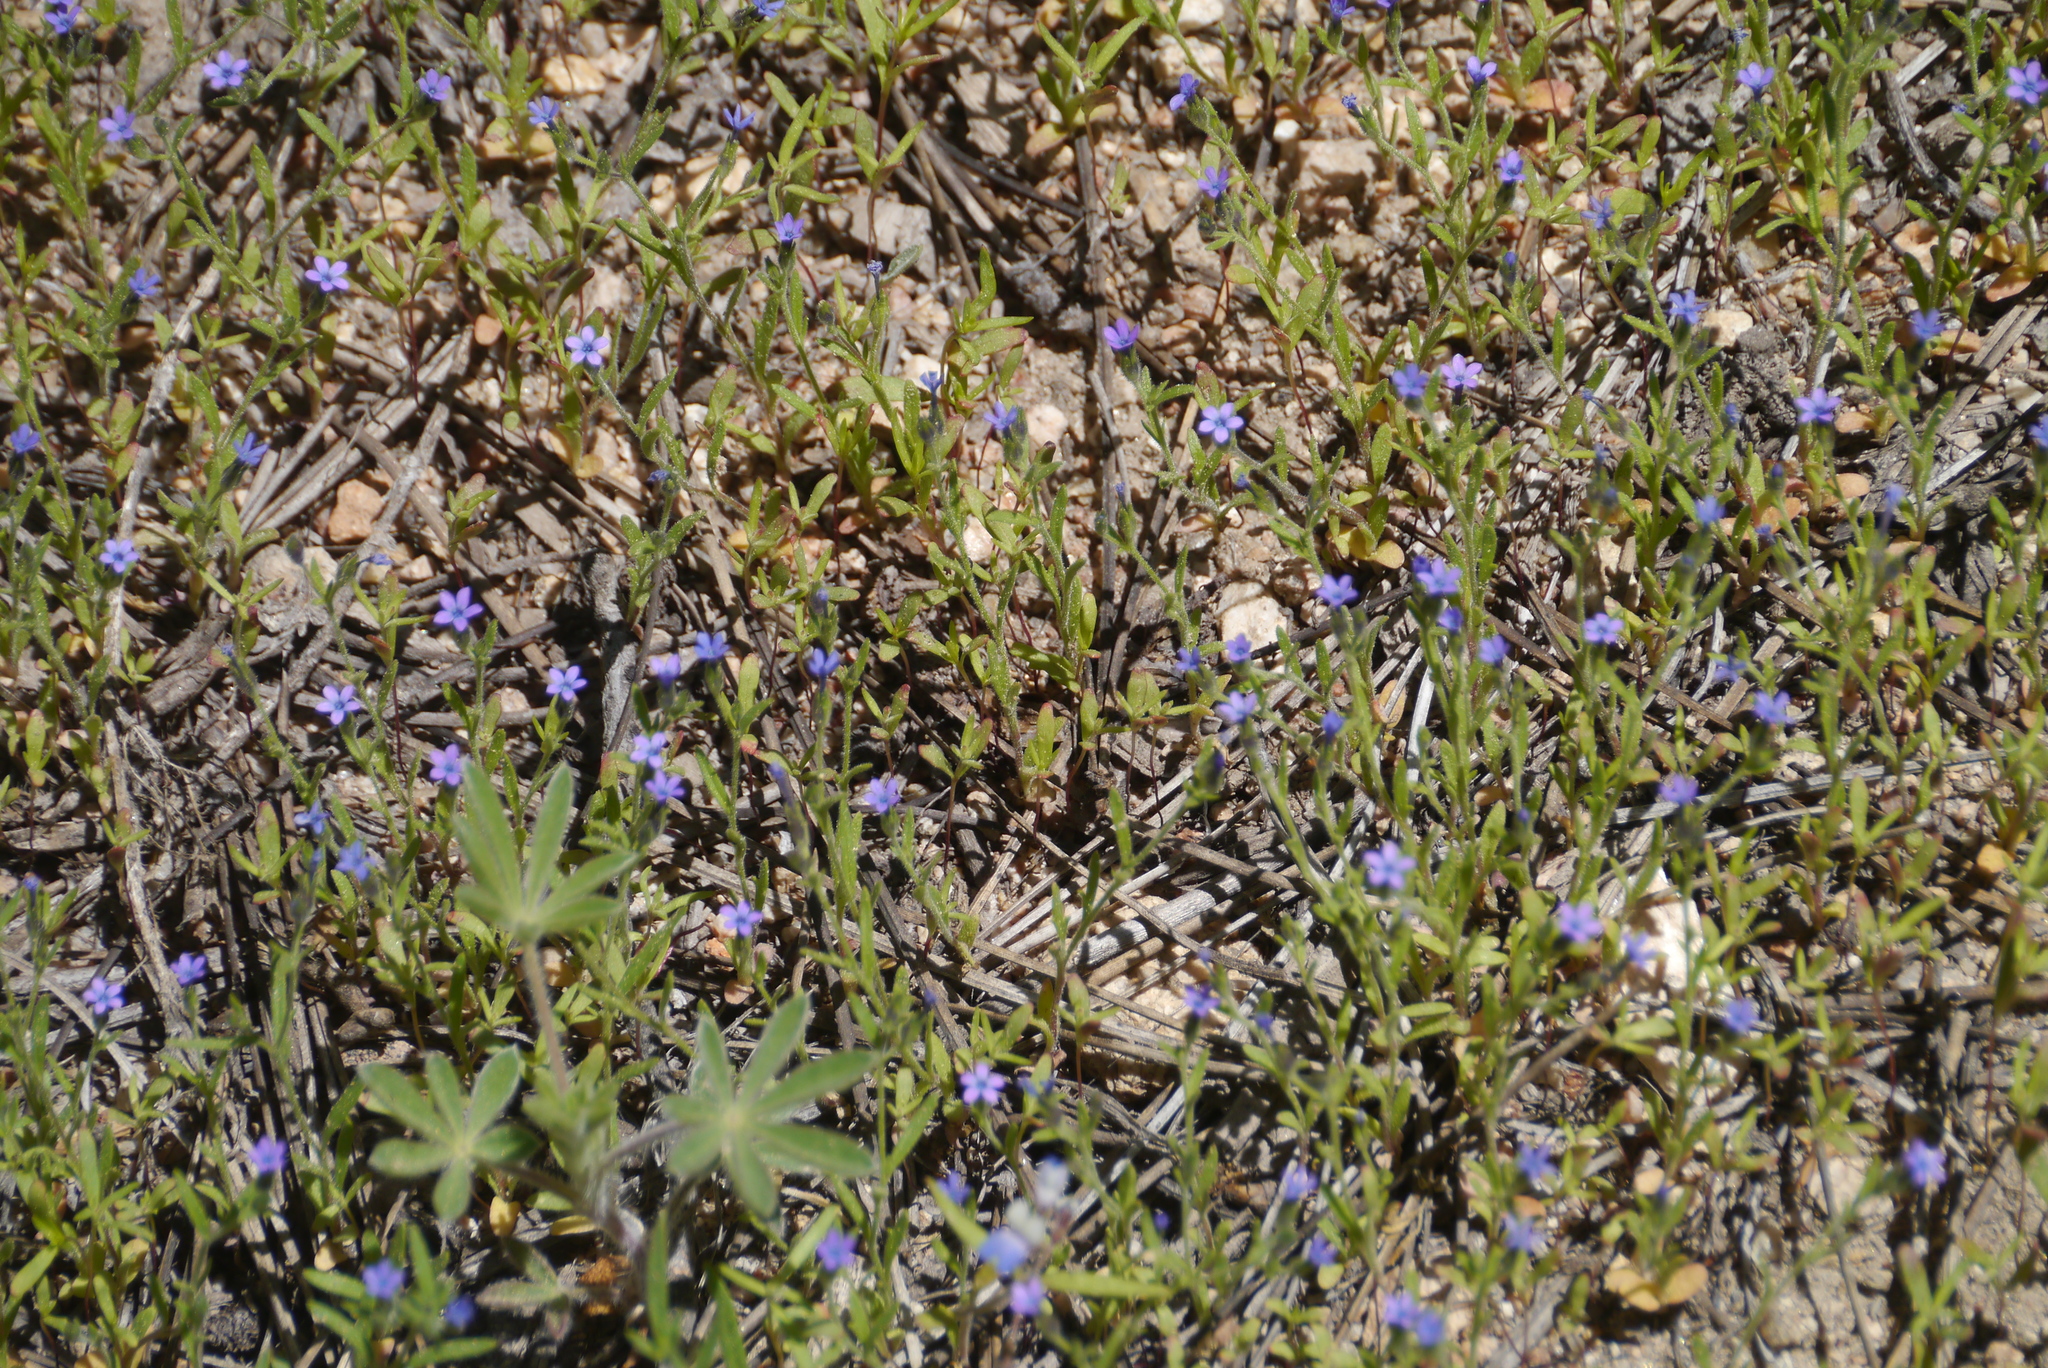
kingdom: Plantae
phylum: Tracheophyta
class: Magnoliopsida
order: Ericales
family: Polemoniaceae
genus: Allophyllum
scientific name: Allophyllum gilioides
